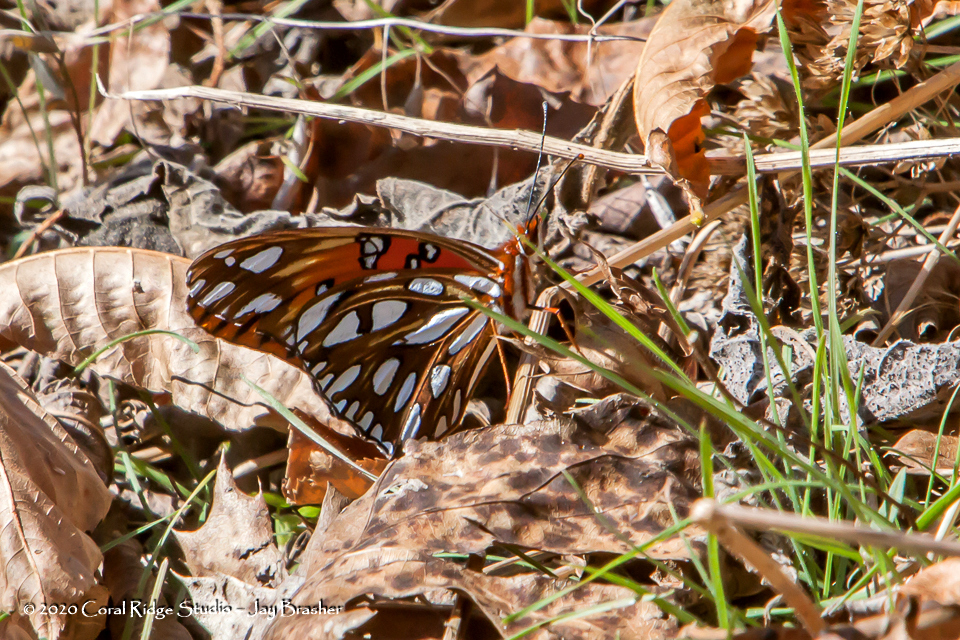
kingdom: Animalia
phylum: Arthropoda
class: Insecta
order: Lepidoptera
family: Nymphalidae
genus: Dione
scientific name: Dione vanillae
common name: Gulf fritillary
